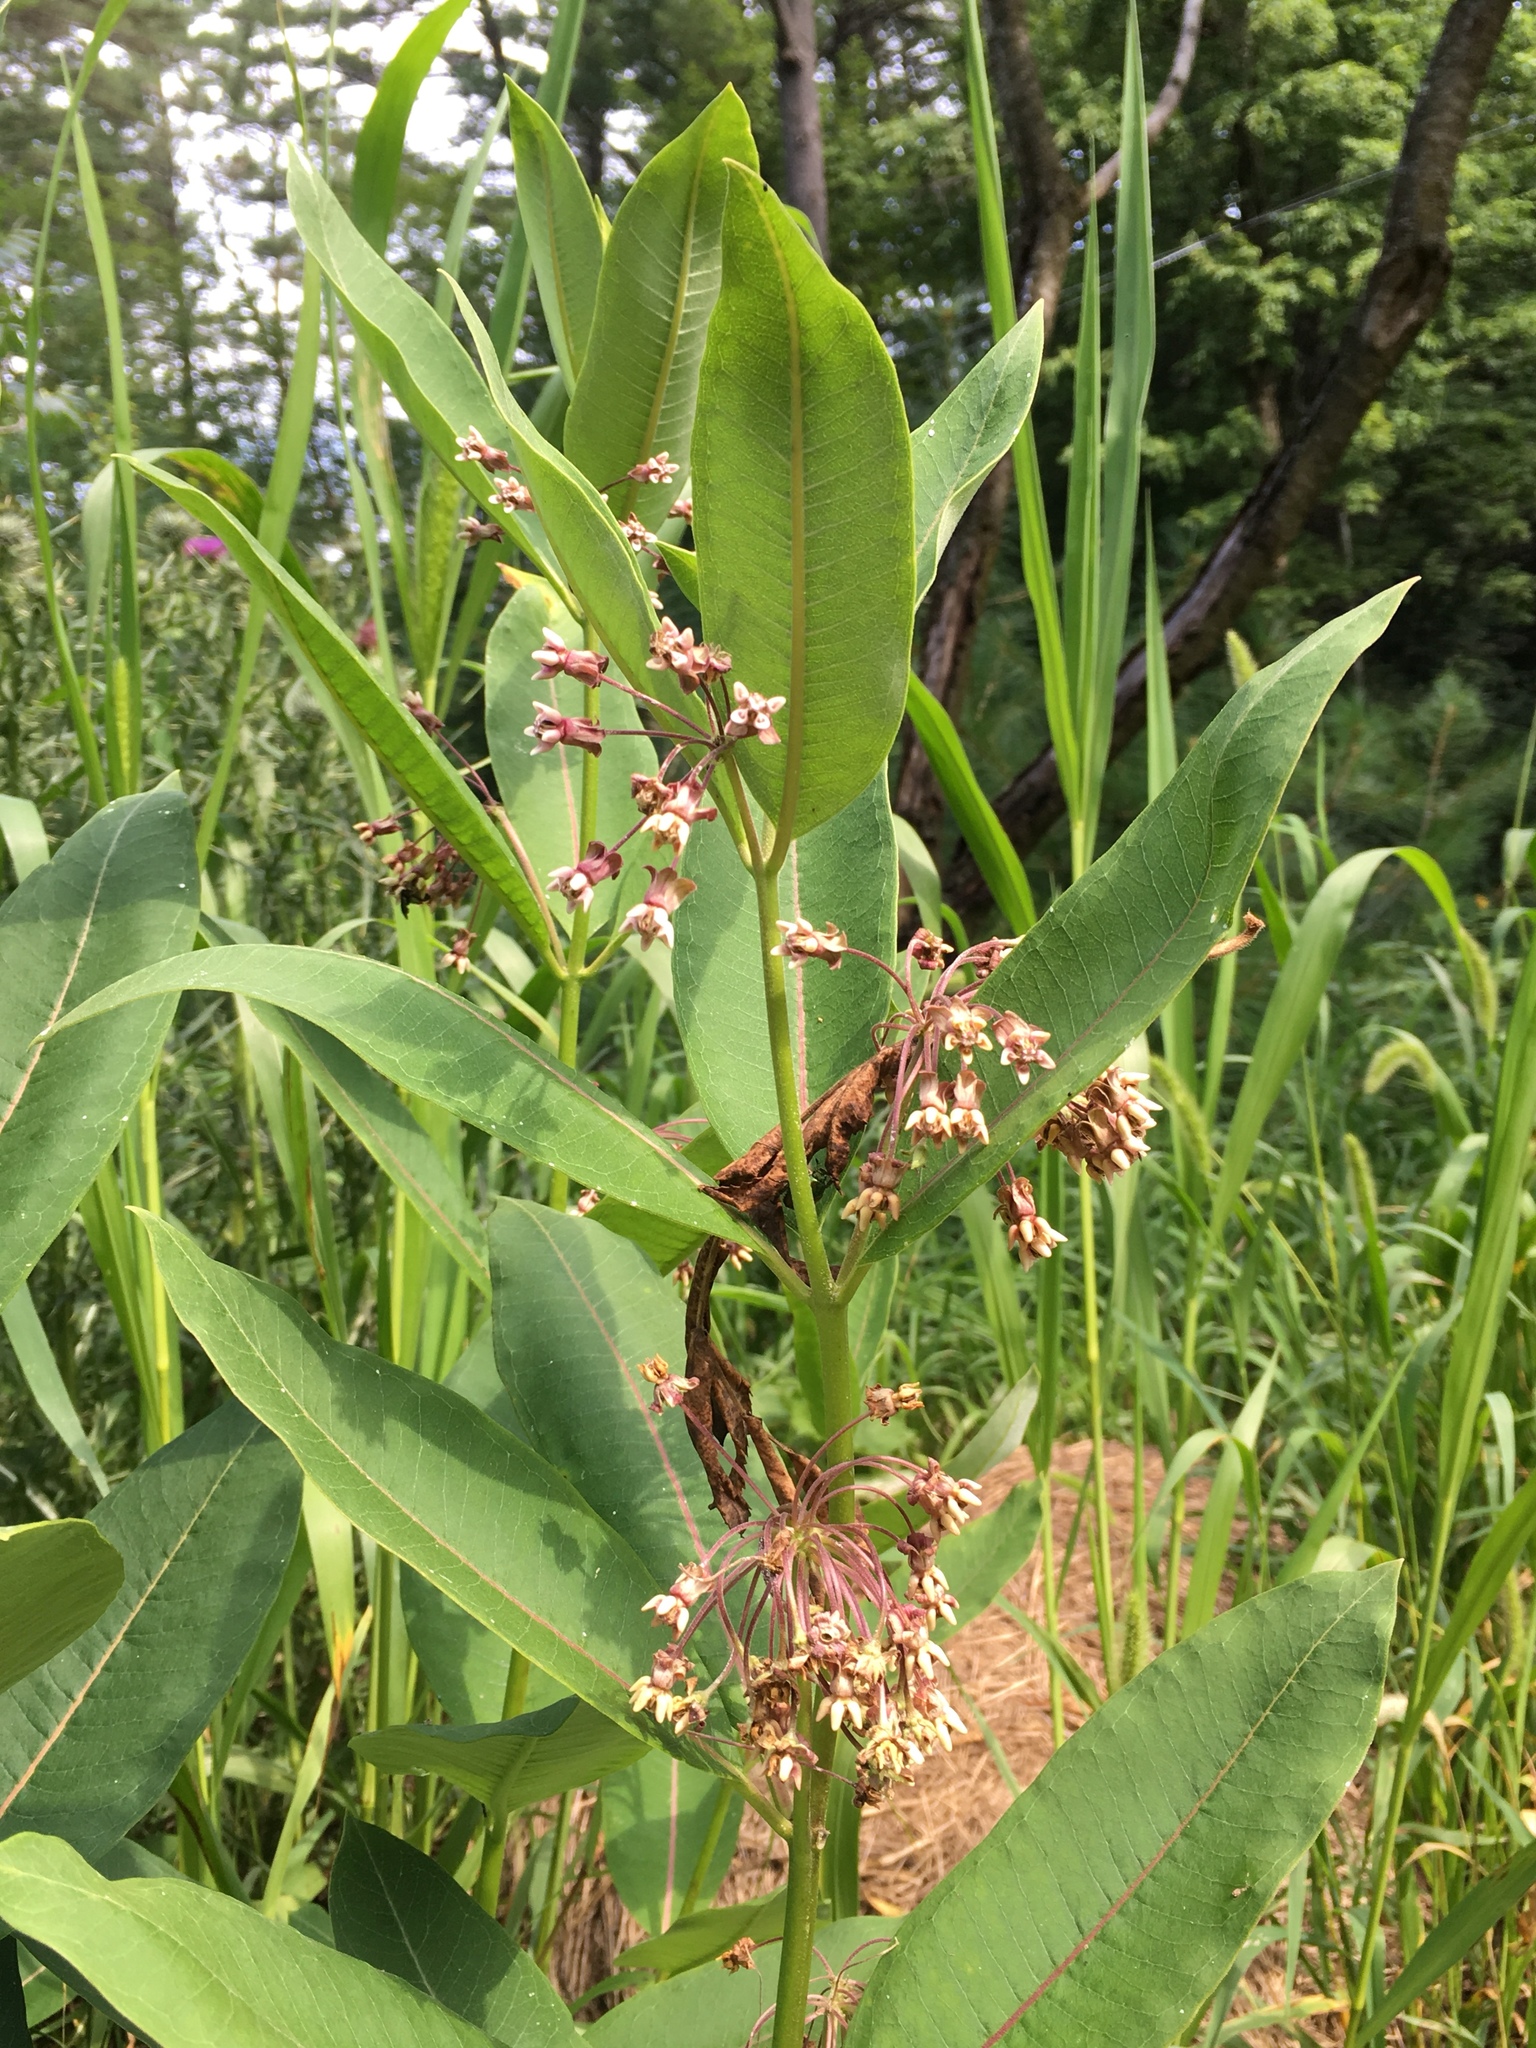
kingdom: Plantae
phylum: Tracheophyta
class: Magnoliopsida
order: Gentianales
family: Apocynaceae
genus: Asclepias
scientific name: Asclepias syriaca
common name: Common milkweed
